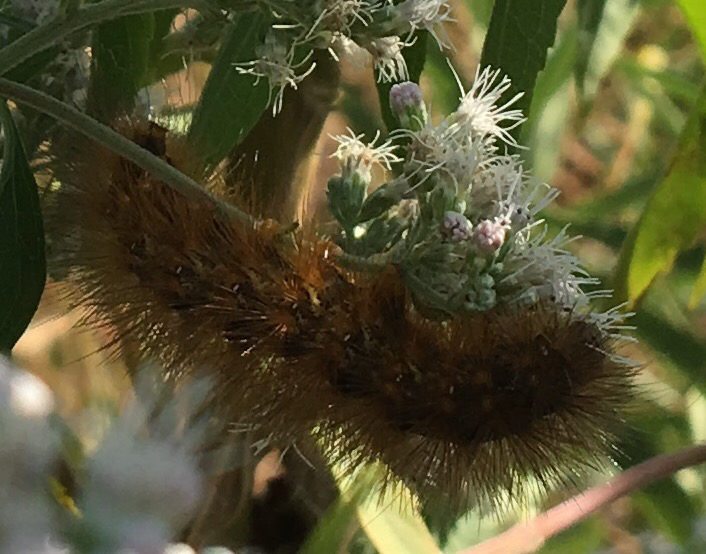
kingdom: Animalia
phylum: Arthropoda
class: Insecta
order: Lepidoptera
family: Erebidae
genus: Estigmene
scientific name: Estigmene acrea
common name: Salt marsh moth
